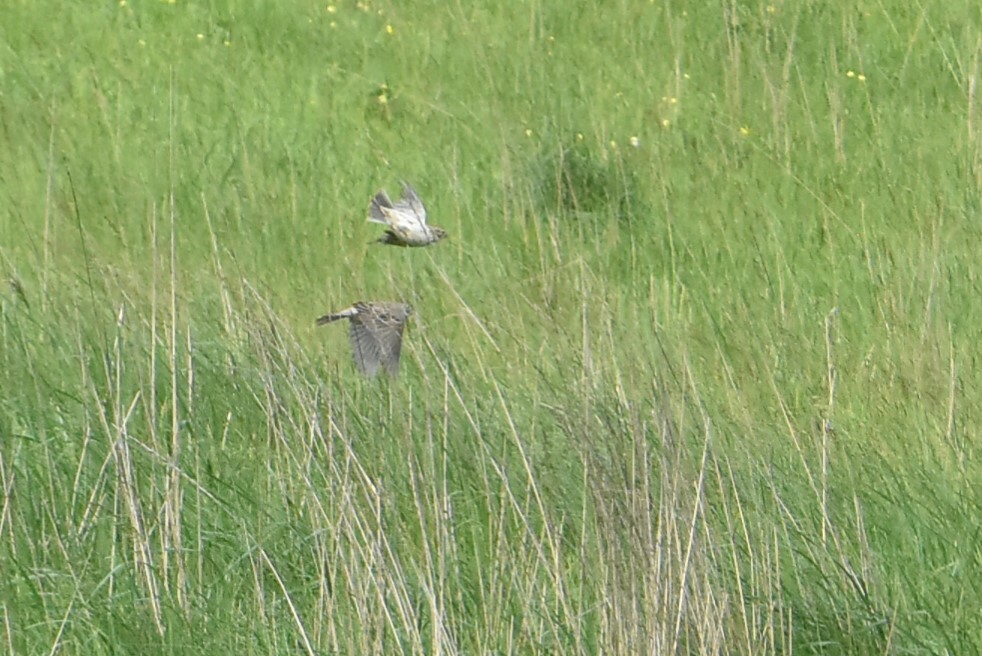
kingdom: Animalia
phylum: Chordata
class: Aves
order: Passeriformes
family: Emberizidae
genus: Emberiza
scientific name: Emberiza calandra
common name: Corn bunting
